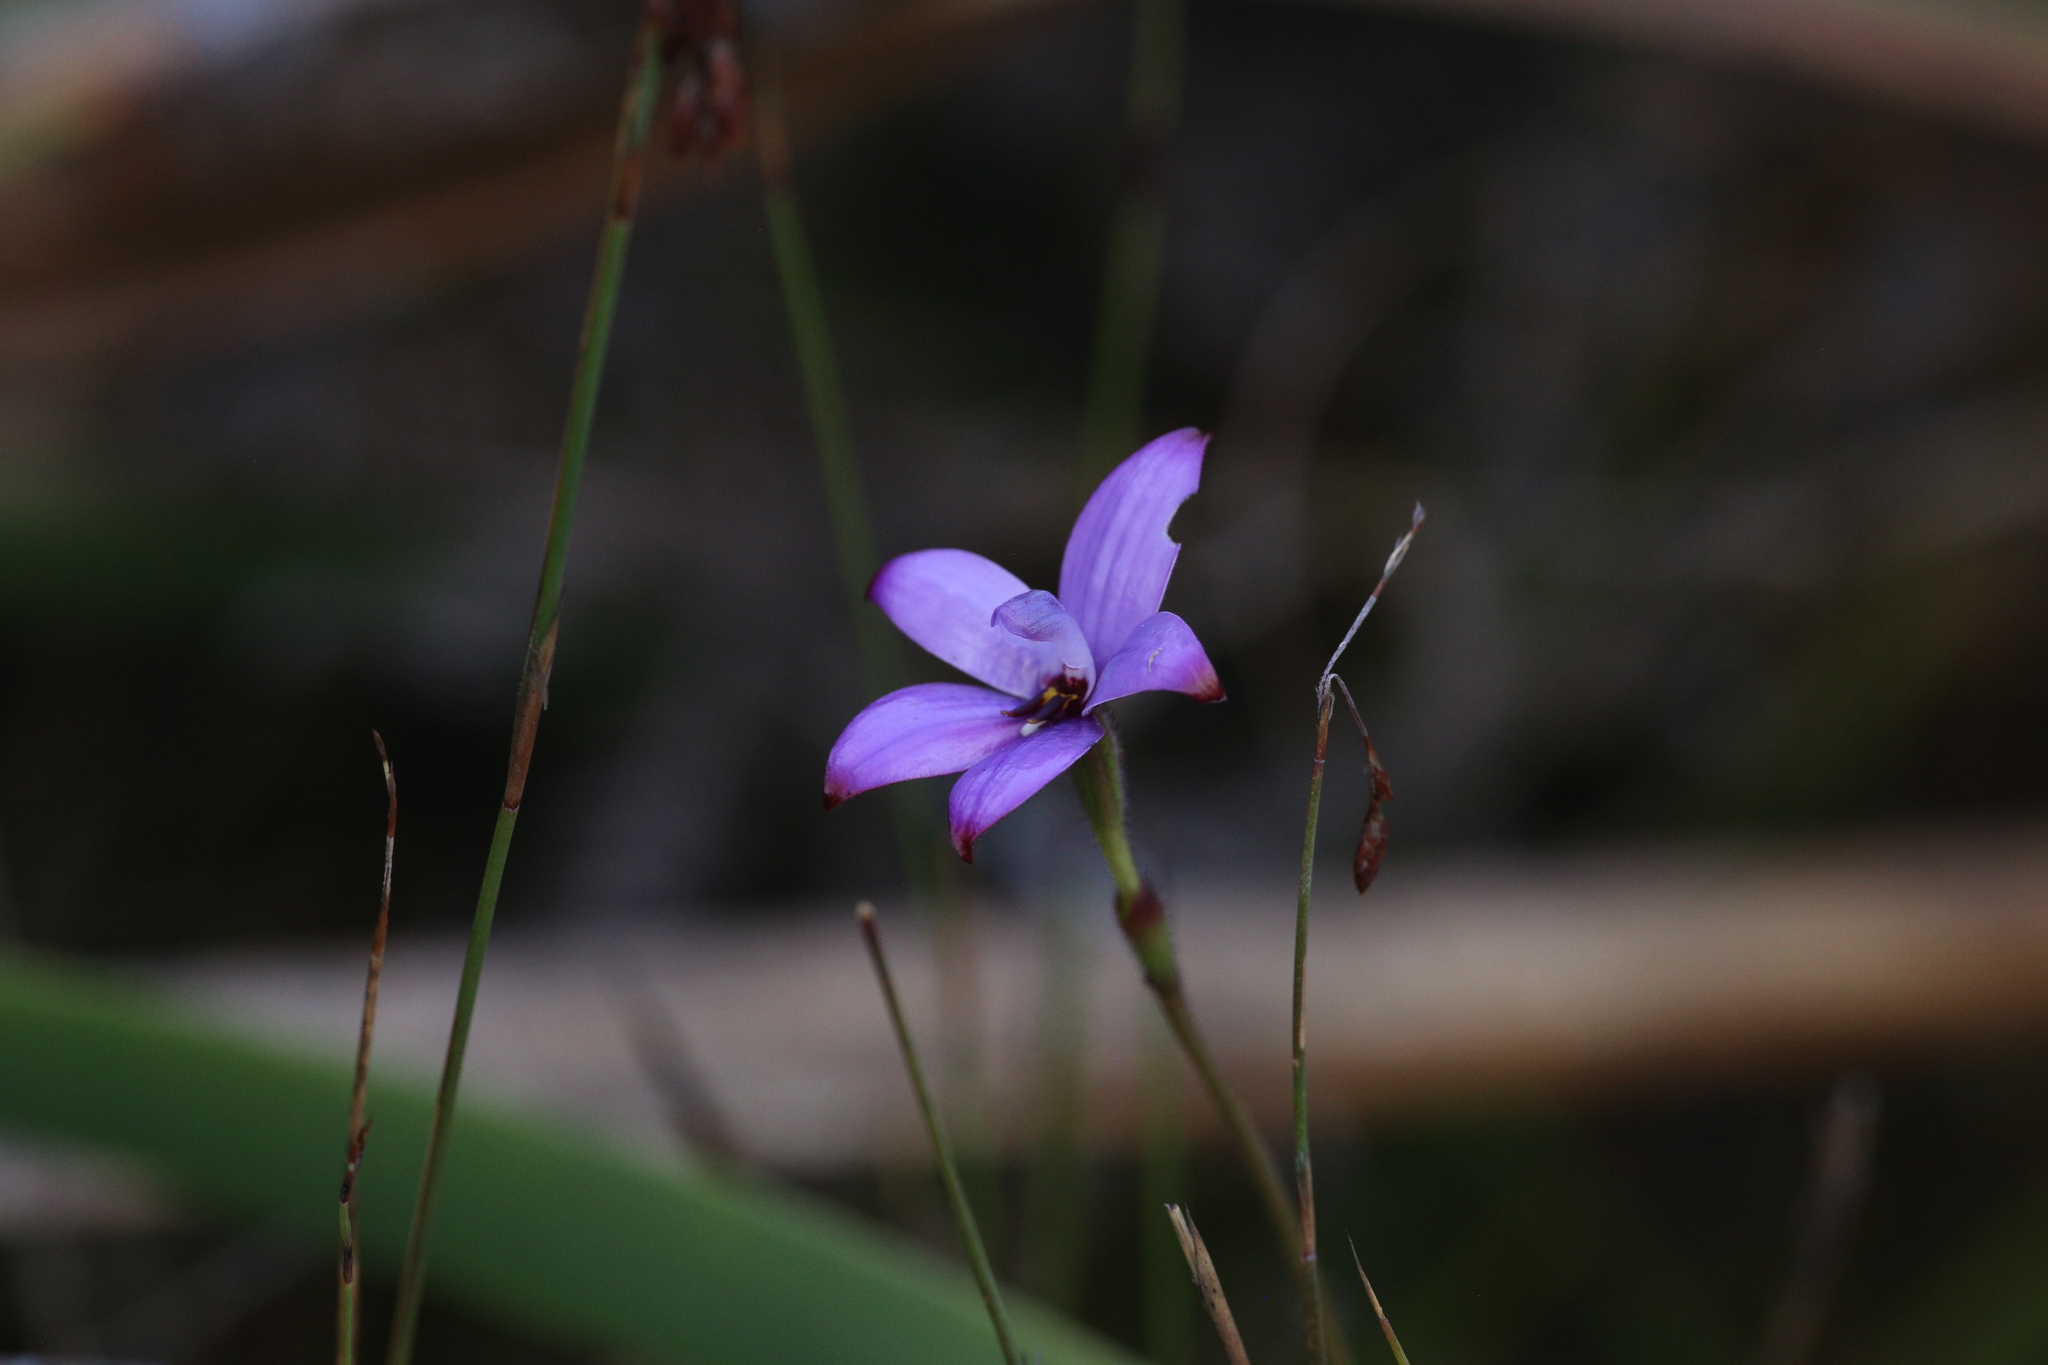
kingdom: Plantae
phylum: Tracheophyta
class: Liliopsida
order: Asparagales
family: Orchidaceae
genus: Caladenia
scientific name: Caladenia brunonis
